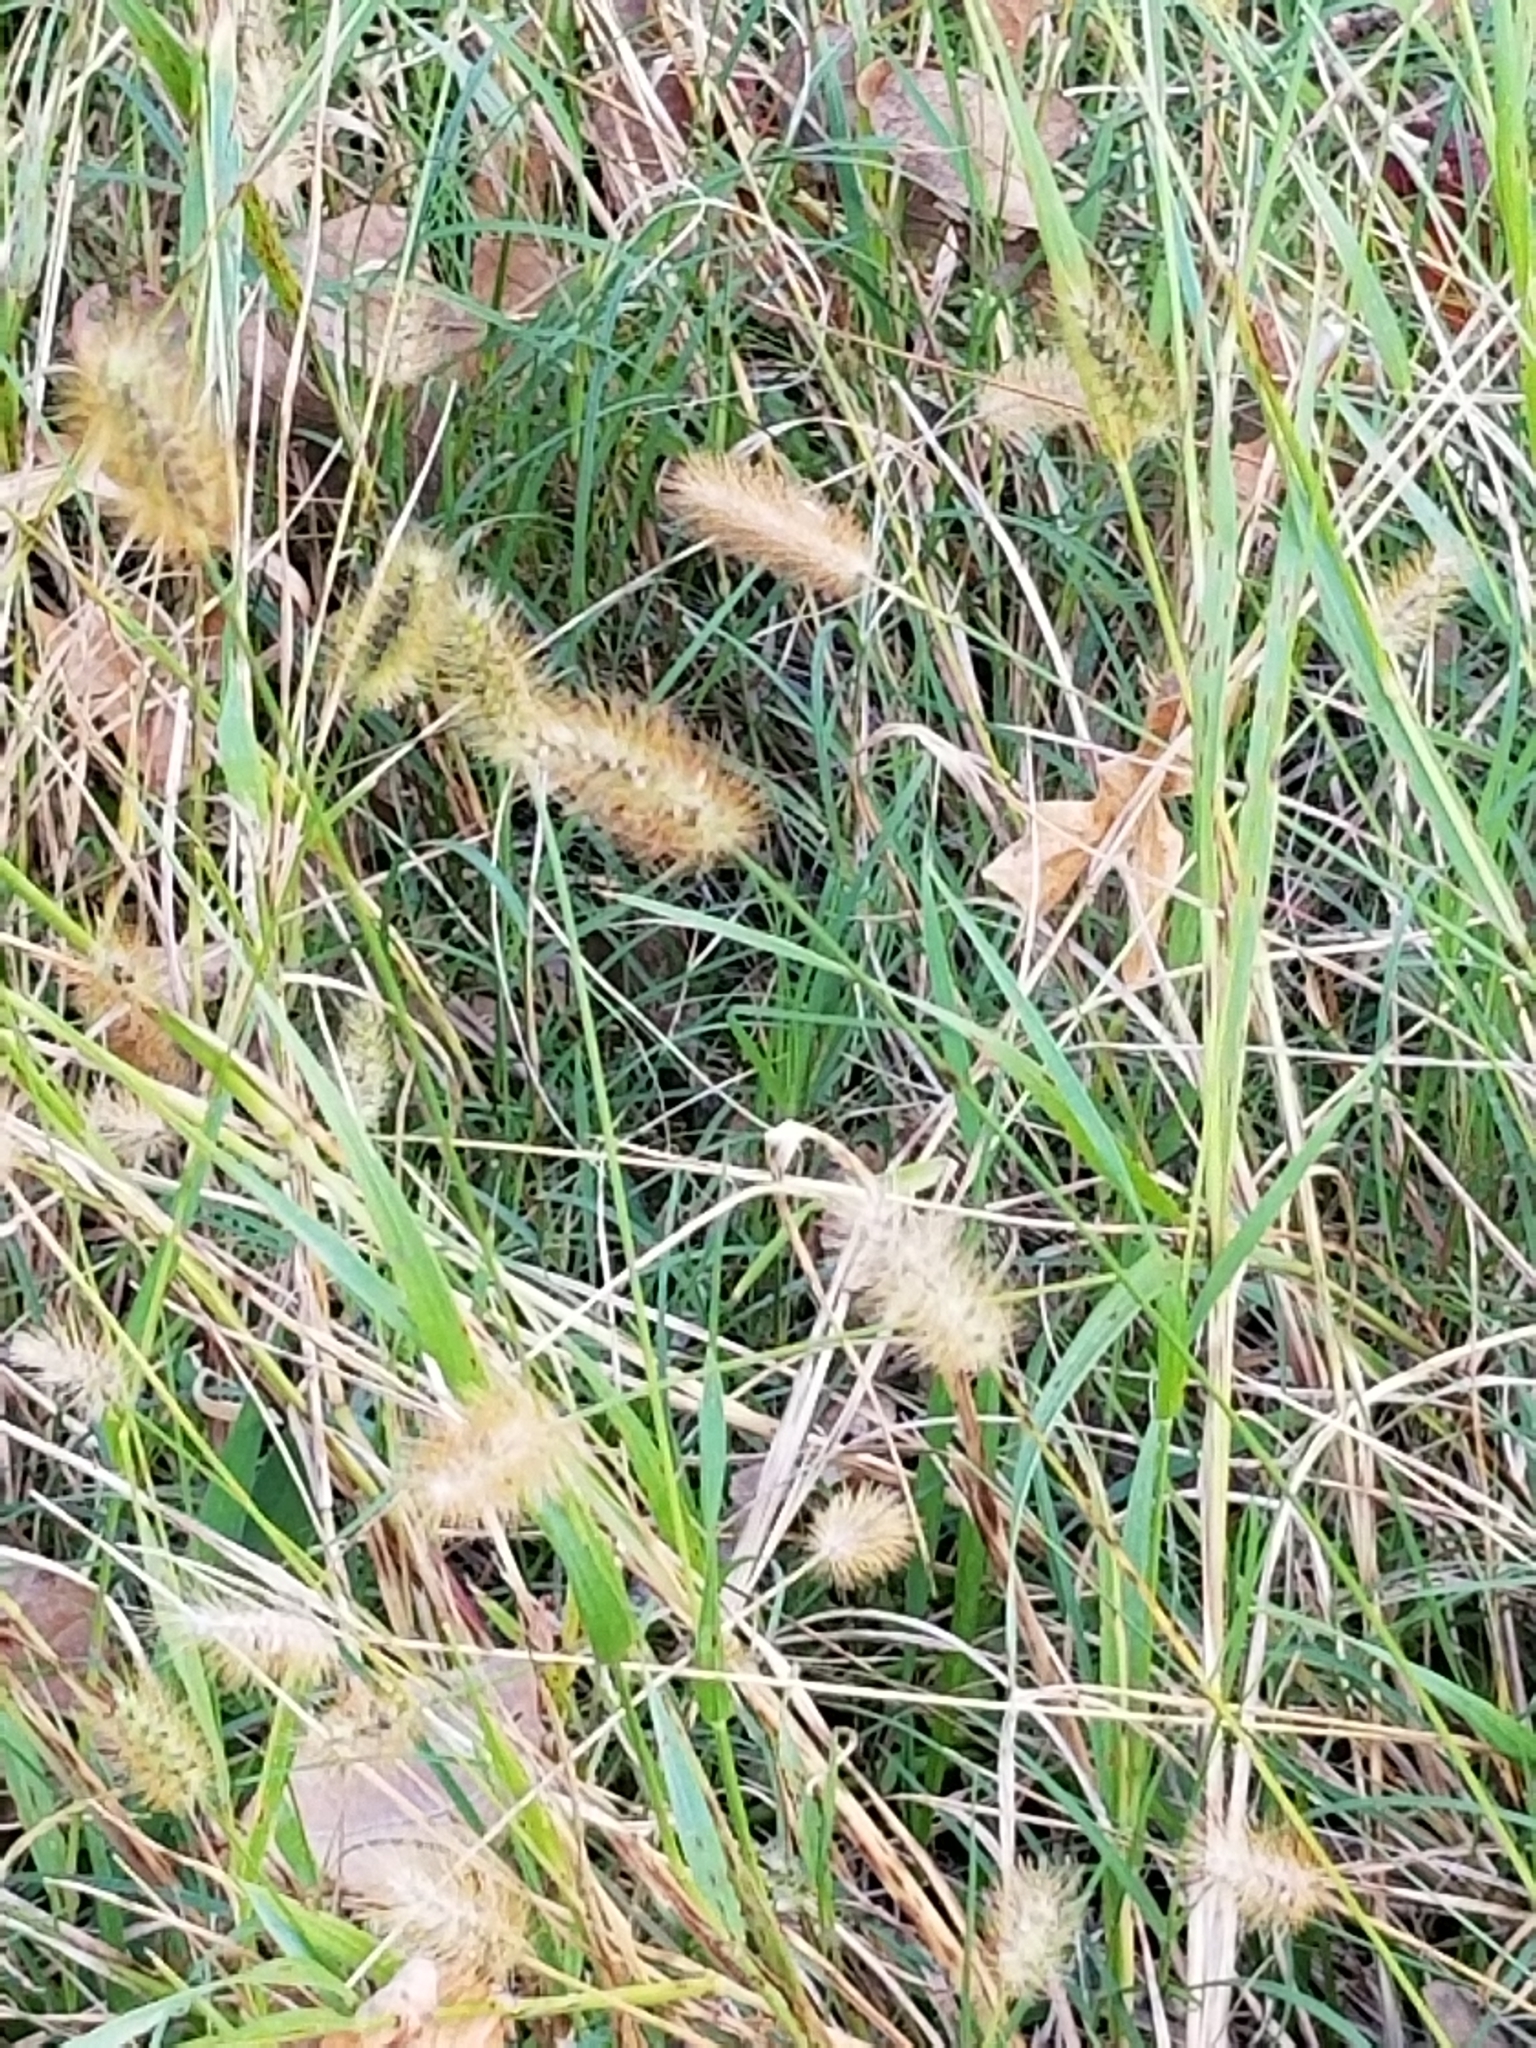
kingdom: Plantae
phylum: Tracheophyta
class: Liliopsida
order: Poales
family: Poaceae
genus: Setaria
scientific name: Setaria parviflora
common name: Knotroot bristle-grass
